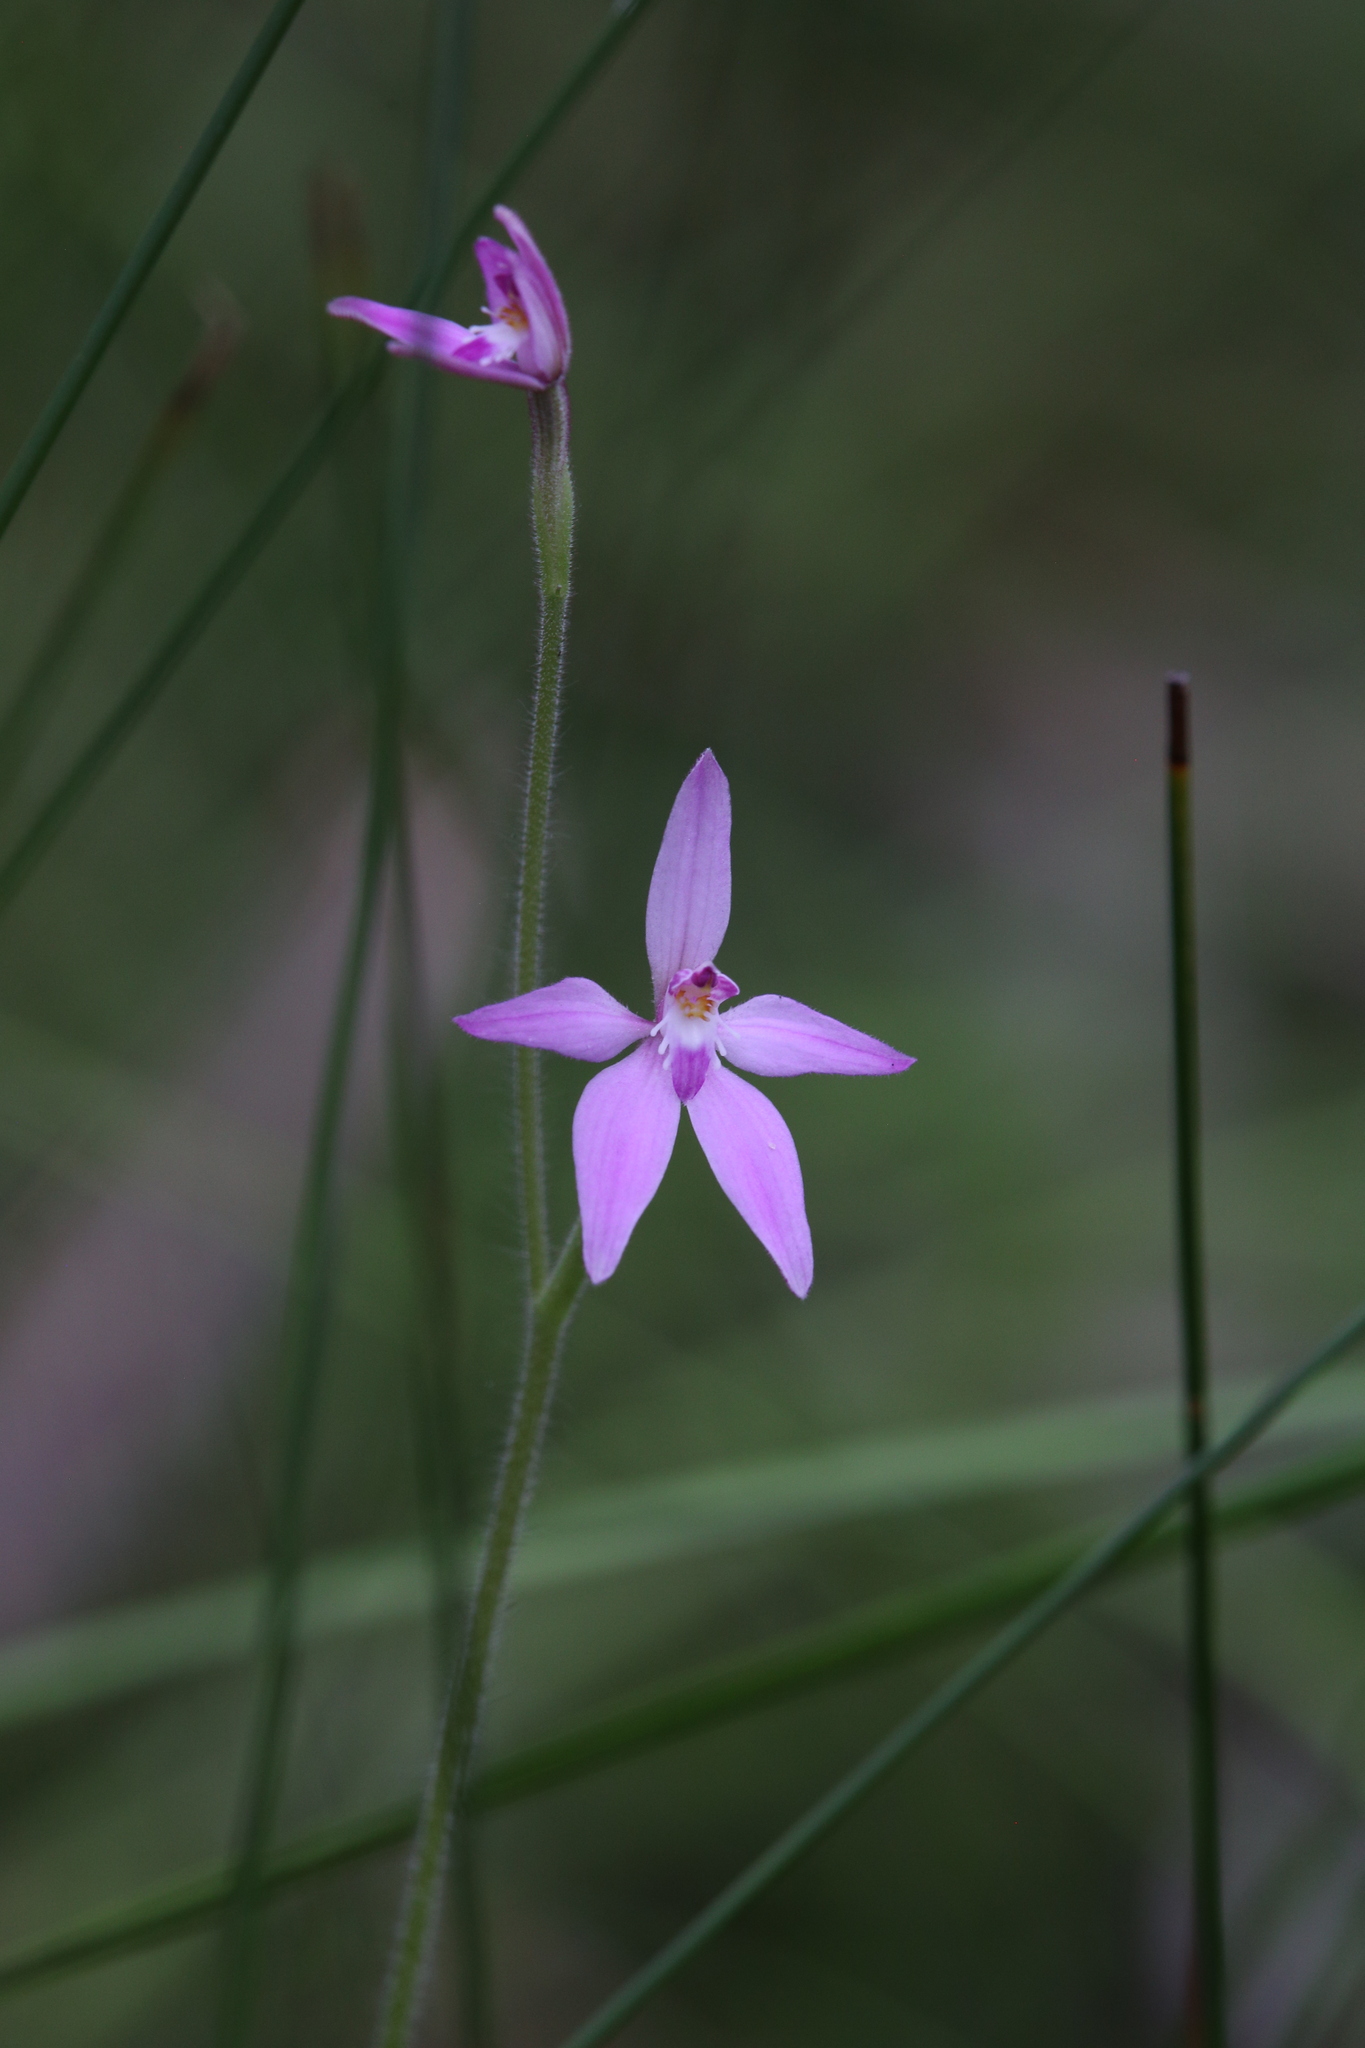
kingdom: Plantae
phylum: Tracheophyta
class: Liliopsida
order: Asparagales
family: Orchidaceae
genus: Caladenia
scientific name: Caladenia latifolia
